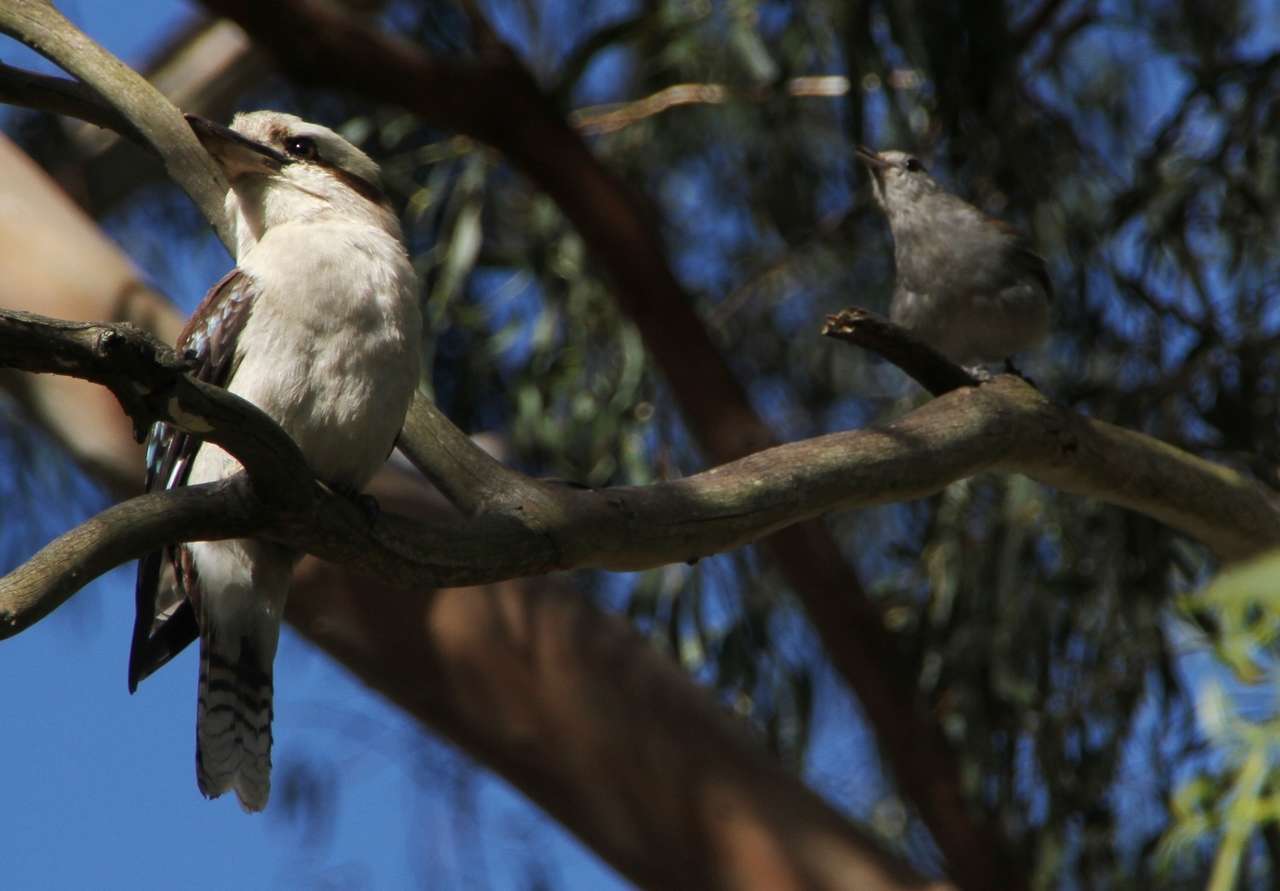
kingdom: Animalia
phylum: Chordata
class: Aves
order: Coraciiformes
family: Alcedinidae
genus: Dacelo
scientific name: Dacelo novaeguineae
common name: Laughing kookaburra
